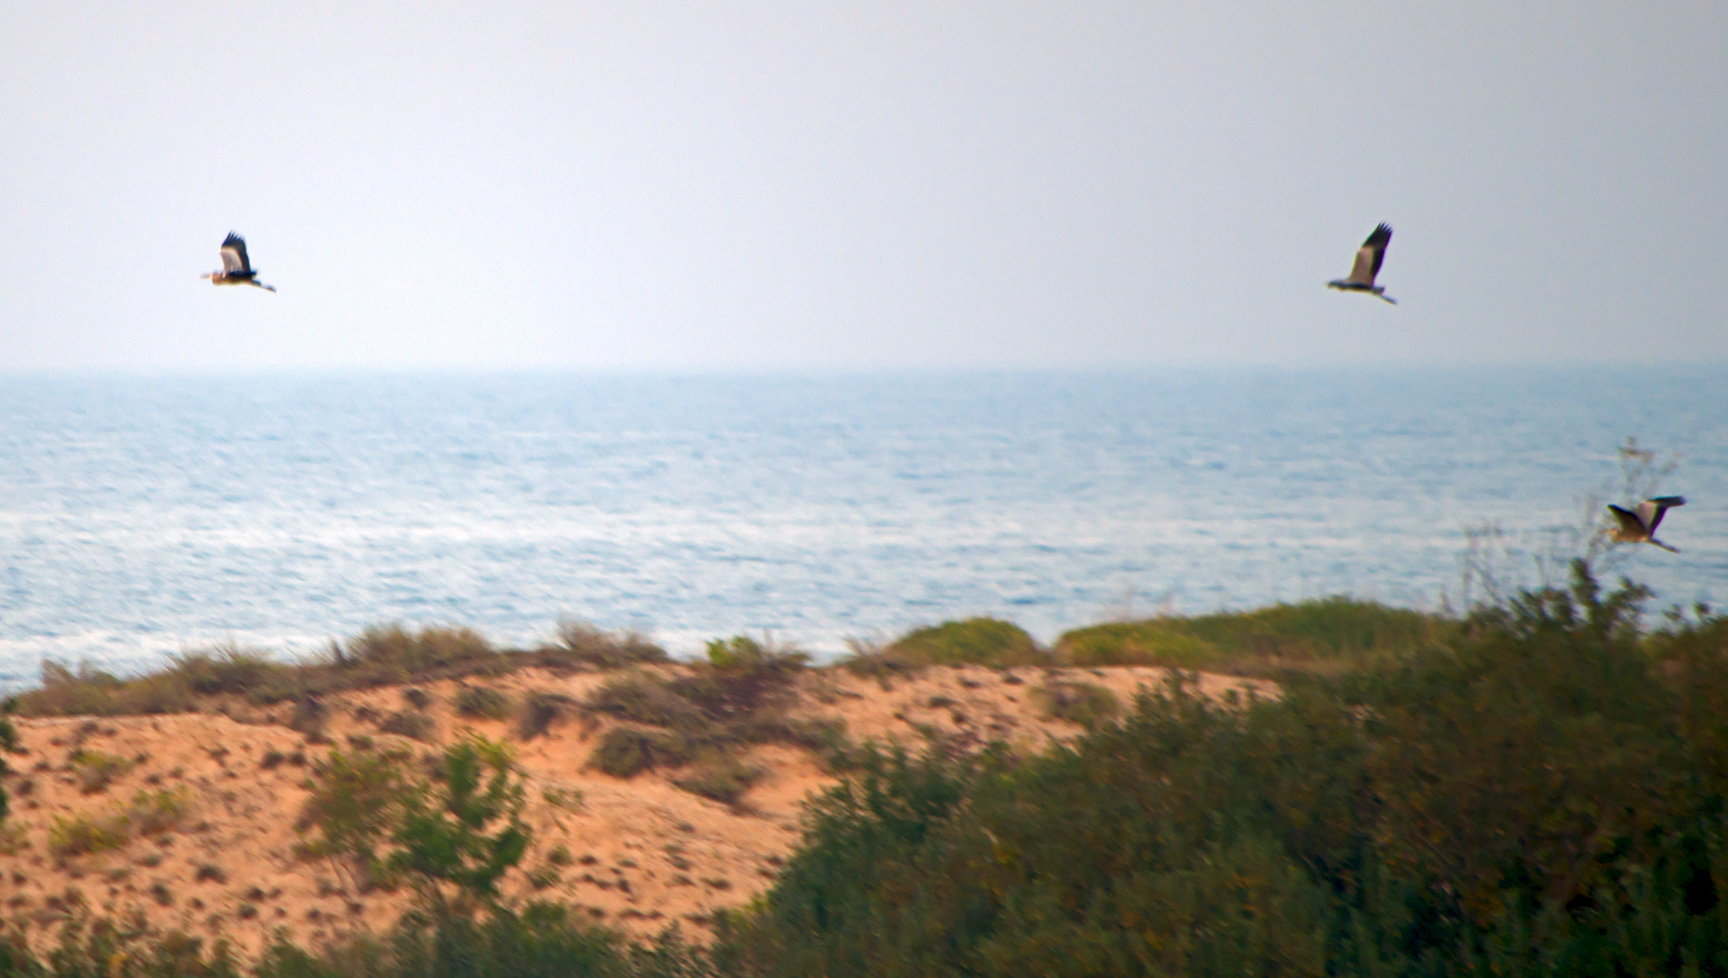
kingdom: Animalia
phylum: Chordata
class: Aves
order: Pelecaniformes
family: Ardeidae
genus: Ardea
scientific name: Ardea cinerea
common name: Grey heron
